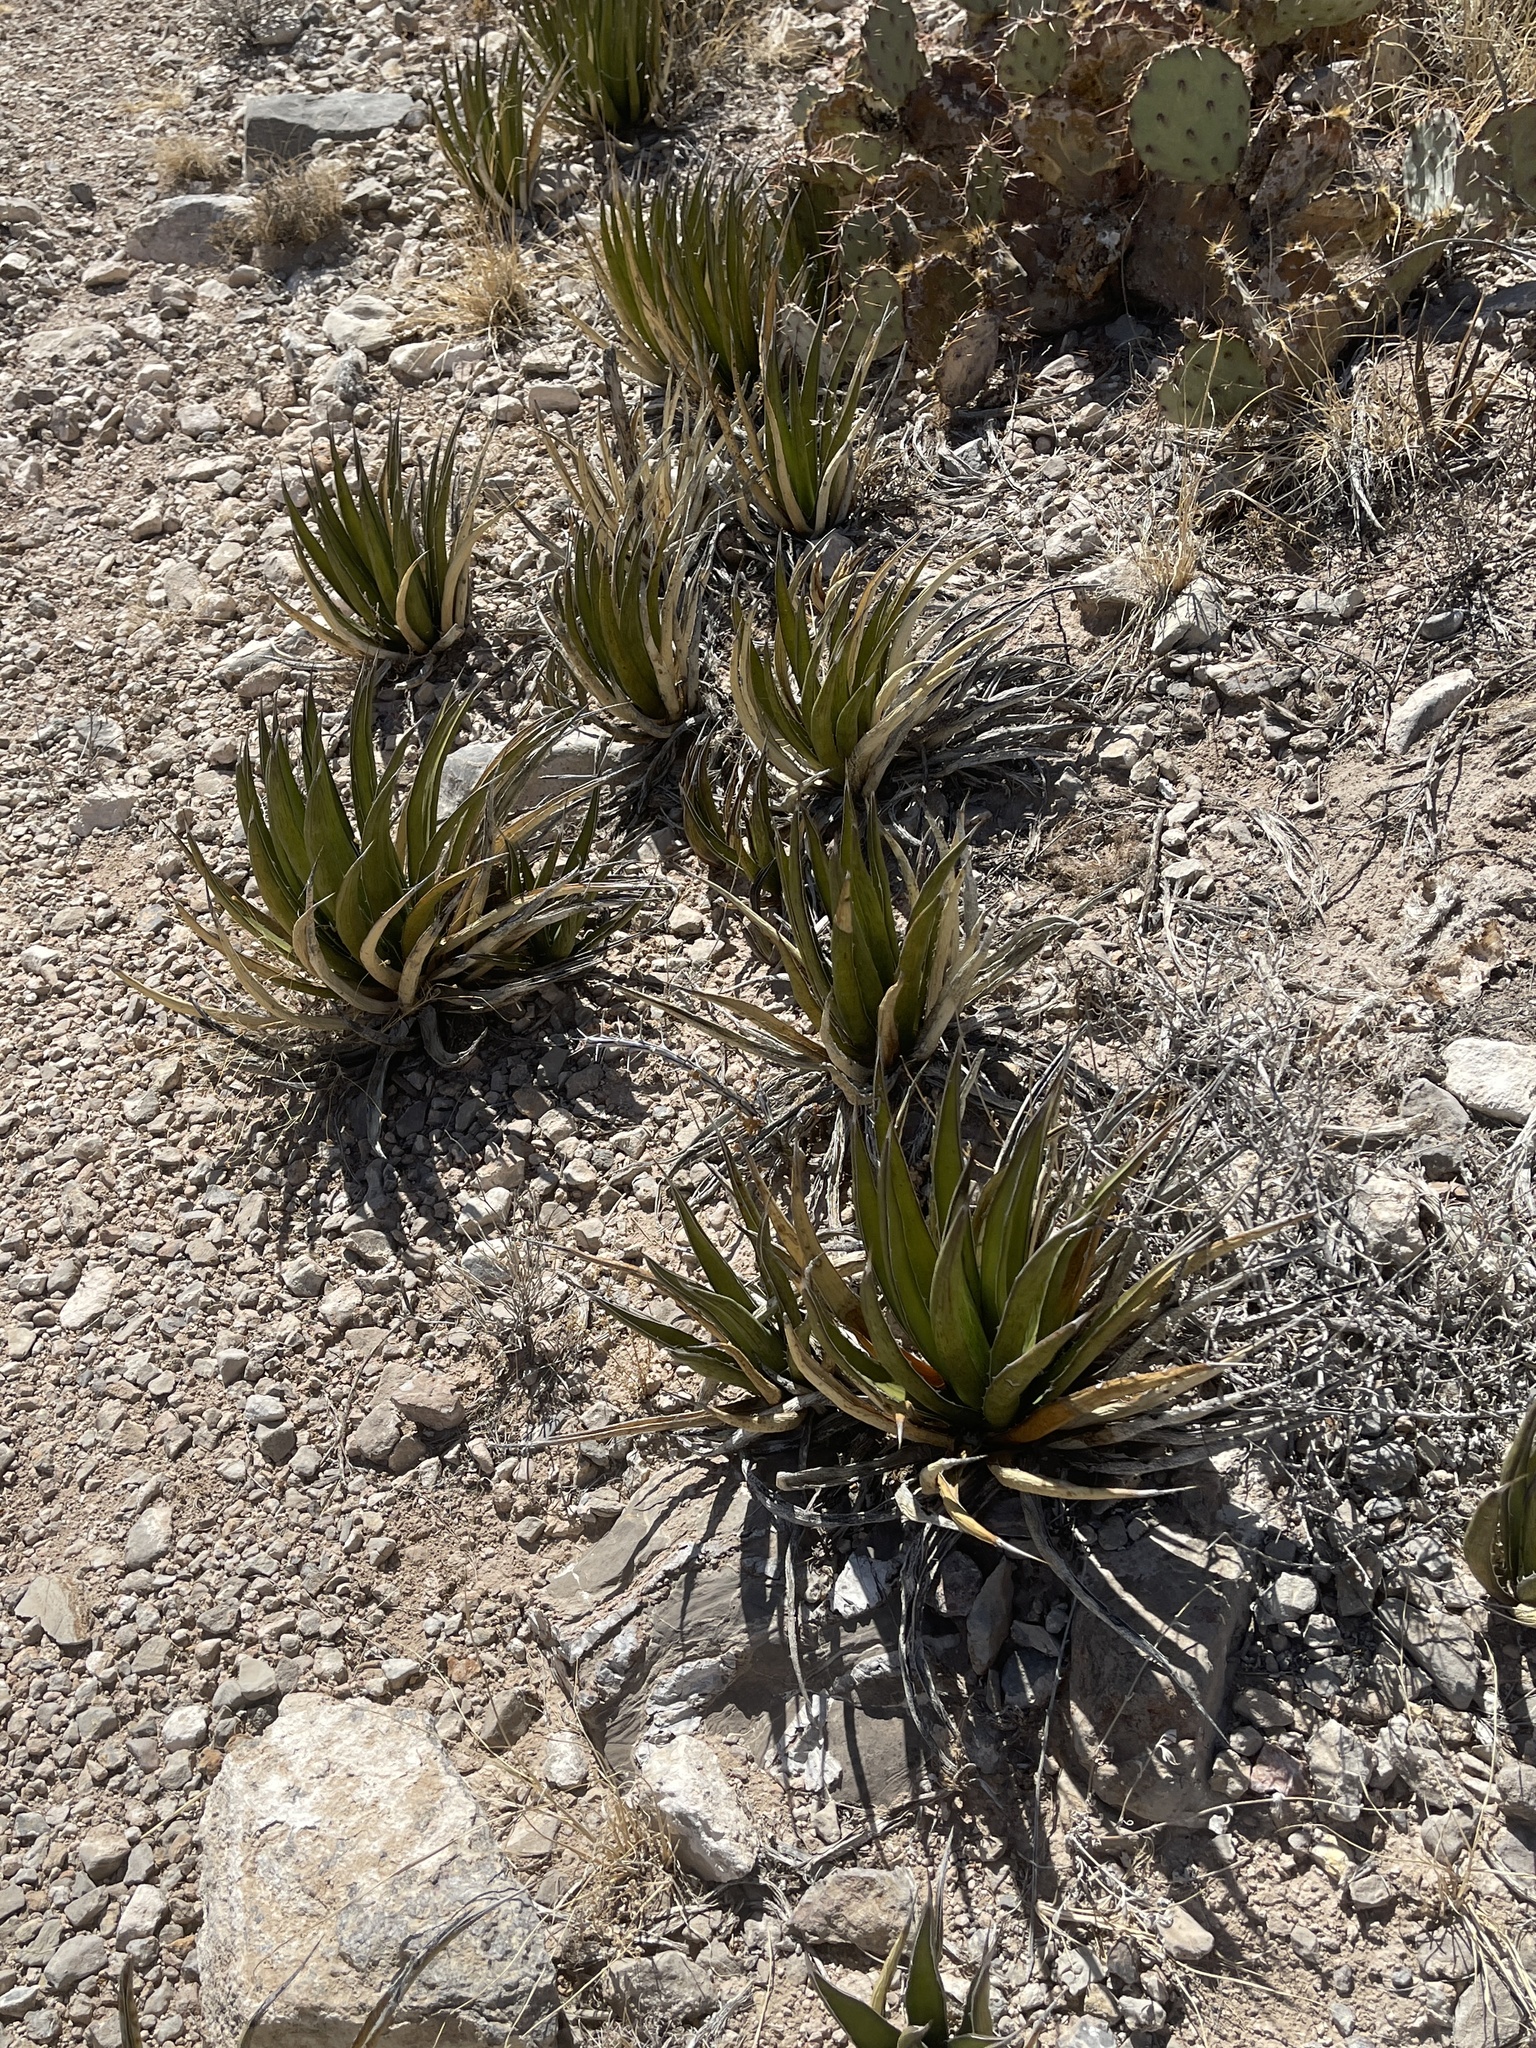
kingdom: Plantae
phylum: Tracheophyta
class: Liliopsida
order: Asparagales
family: Asparagaceae
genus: Agave
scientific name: Agave lechuguilla
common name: Lecheguilla agave
